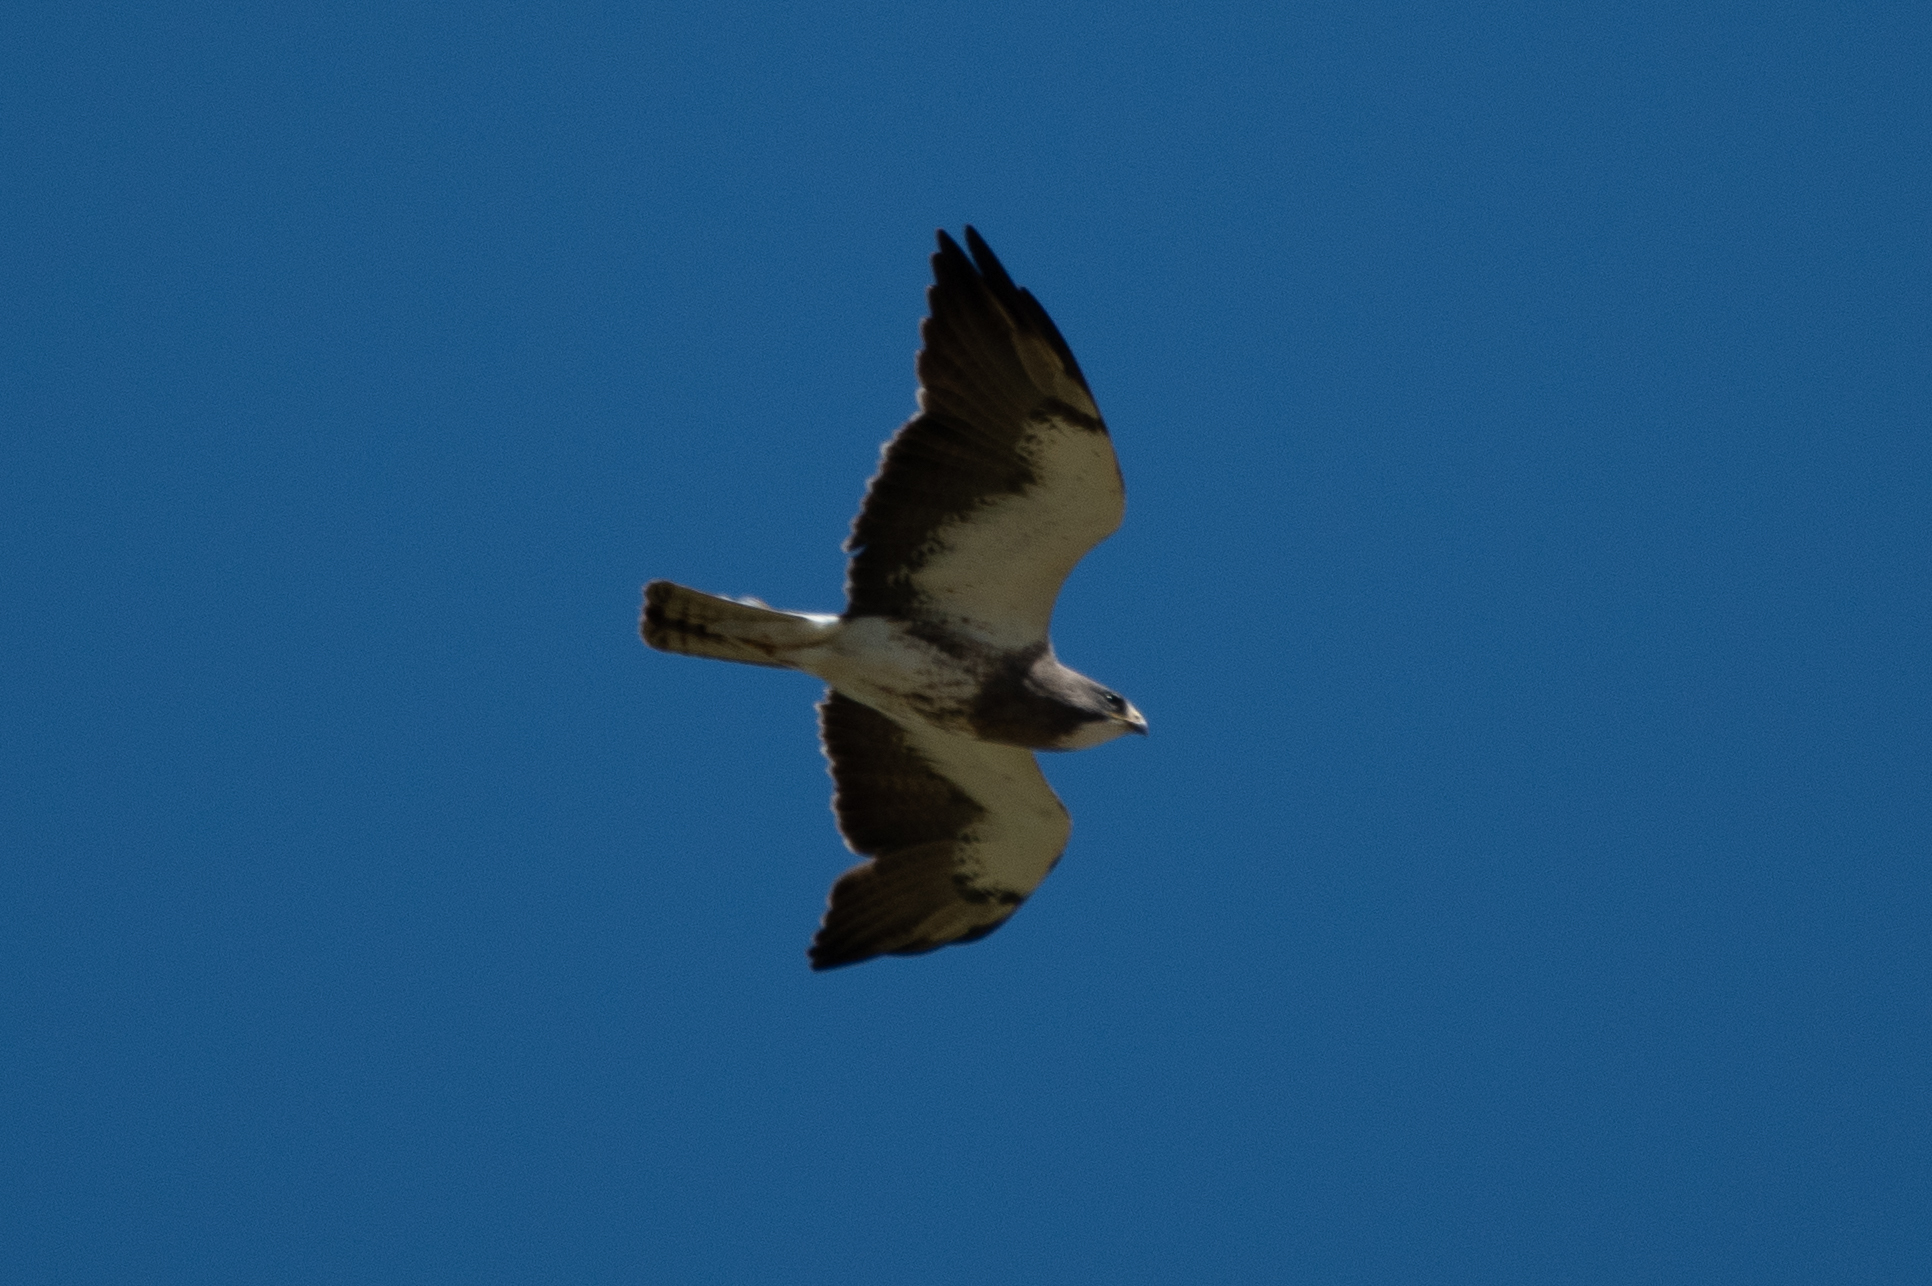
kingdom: Animalia
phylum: Chordata
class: Aves
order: Accipitriformes
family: Accipitridae
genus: Buteo
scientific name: Buteo swainsoni
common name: Swainson's hawk
